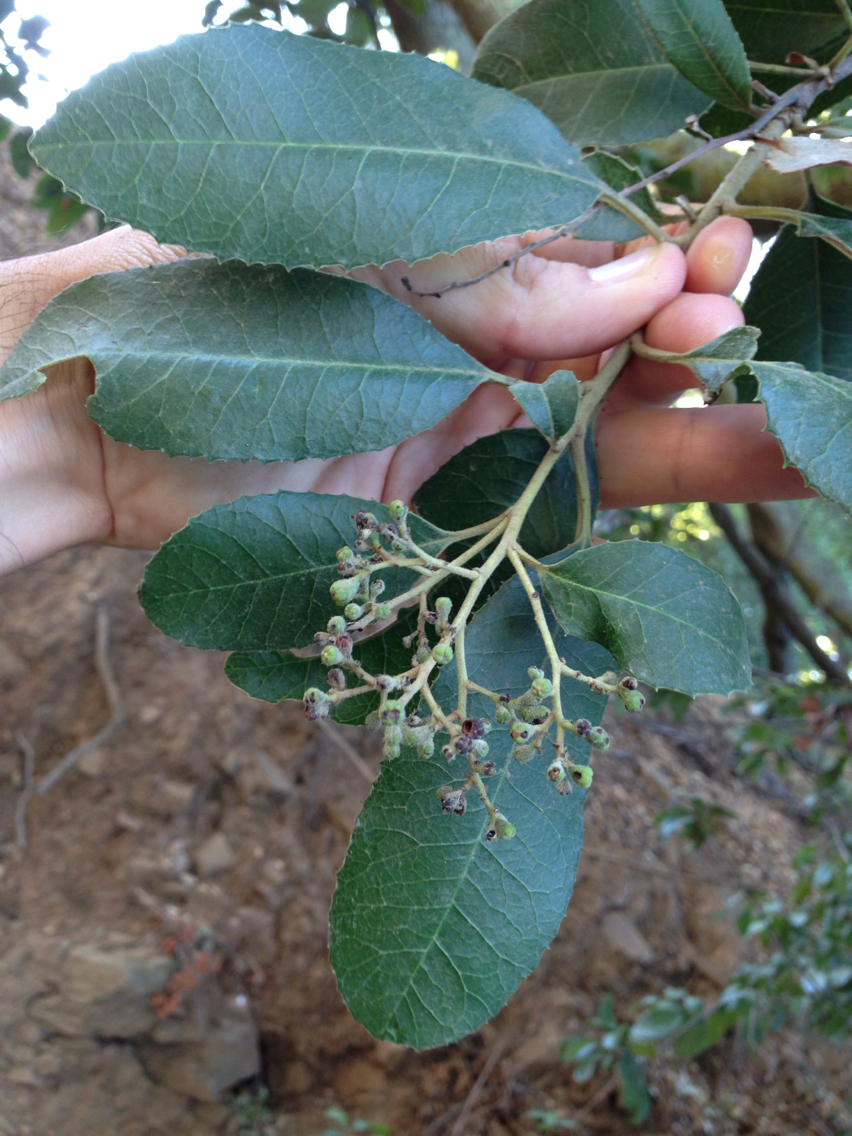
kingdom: Plantae
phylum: Tracheophyta
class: Magnoliopsida
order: Rosales
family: Rosaceae
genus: Heteromeles
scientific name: Heteromeles arbutifolia
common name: California-holly
